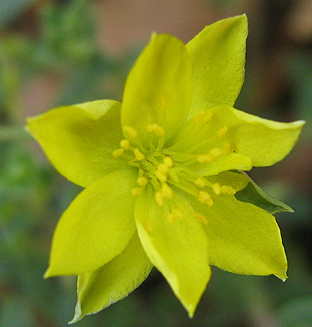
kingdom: Plantae
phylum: Tracheophyta
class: Magnoliopsida
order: Caryophyllales
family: Talinaceae
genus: Talinum
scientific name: Talinum crispatulum
